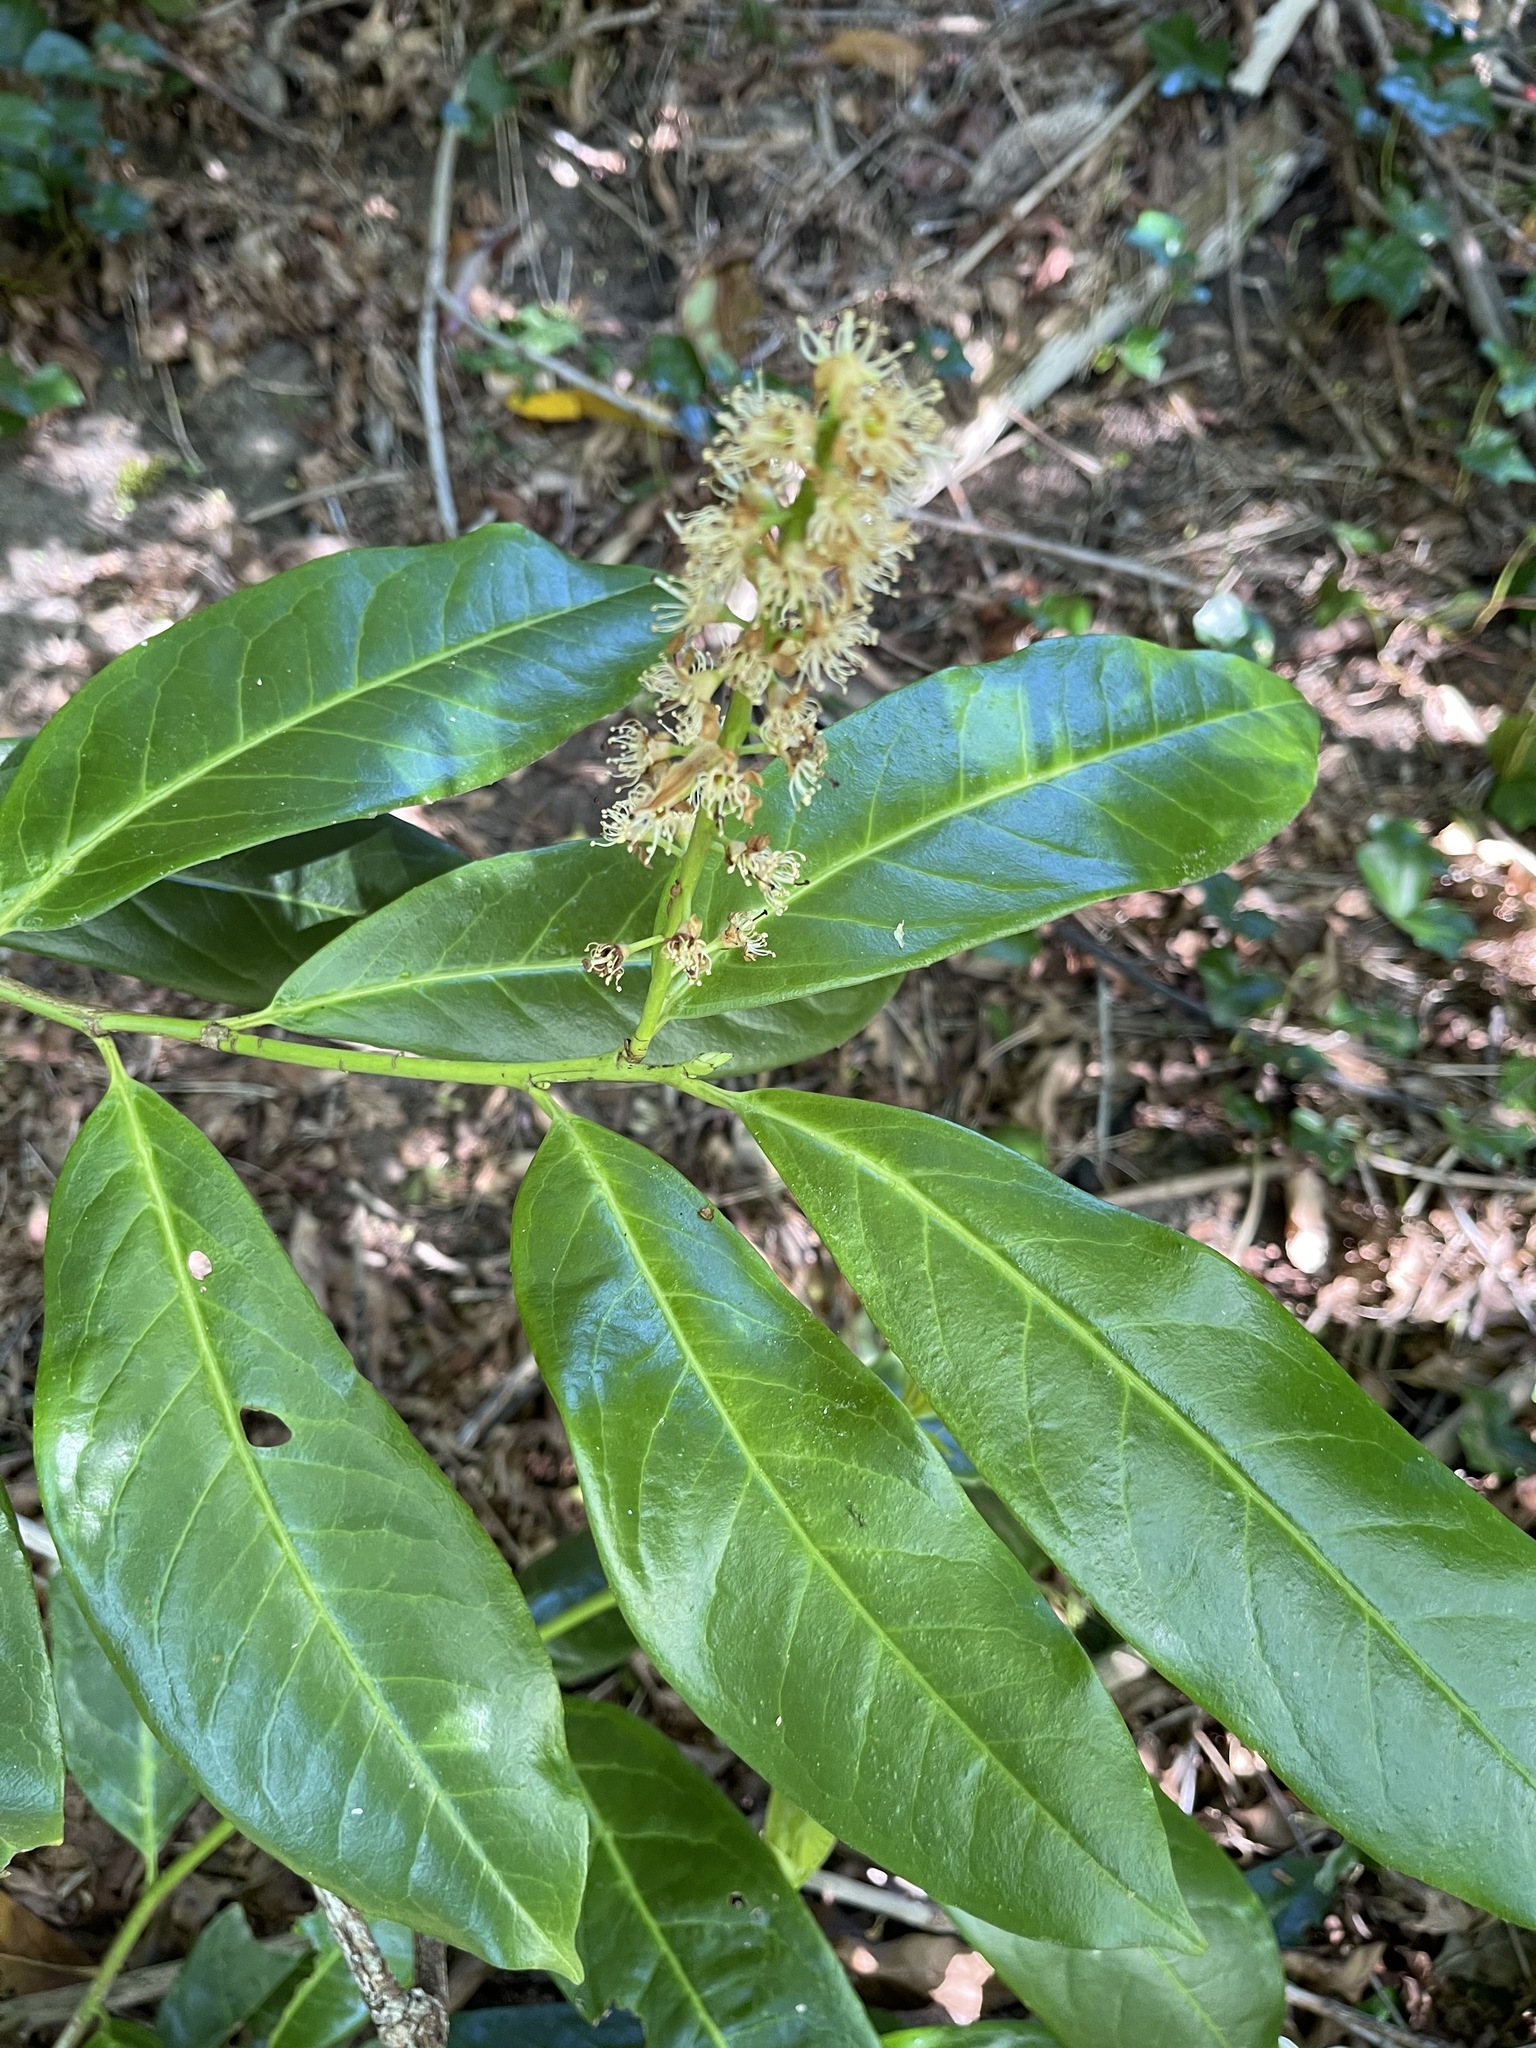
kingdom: Plantae
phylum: Tracheophyta
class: Magnoliopsida
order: Rosales
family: Rosaceae
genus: Prunus
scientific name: Prunus laurocerasus
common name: Cherry laurel
